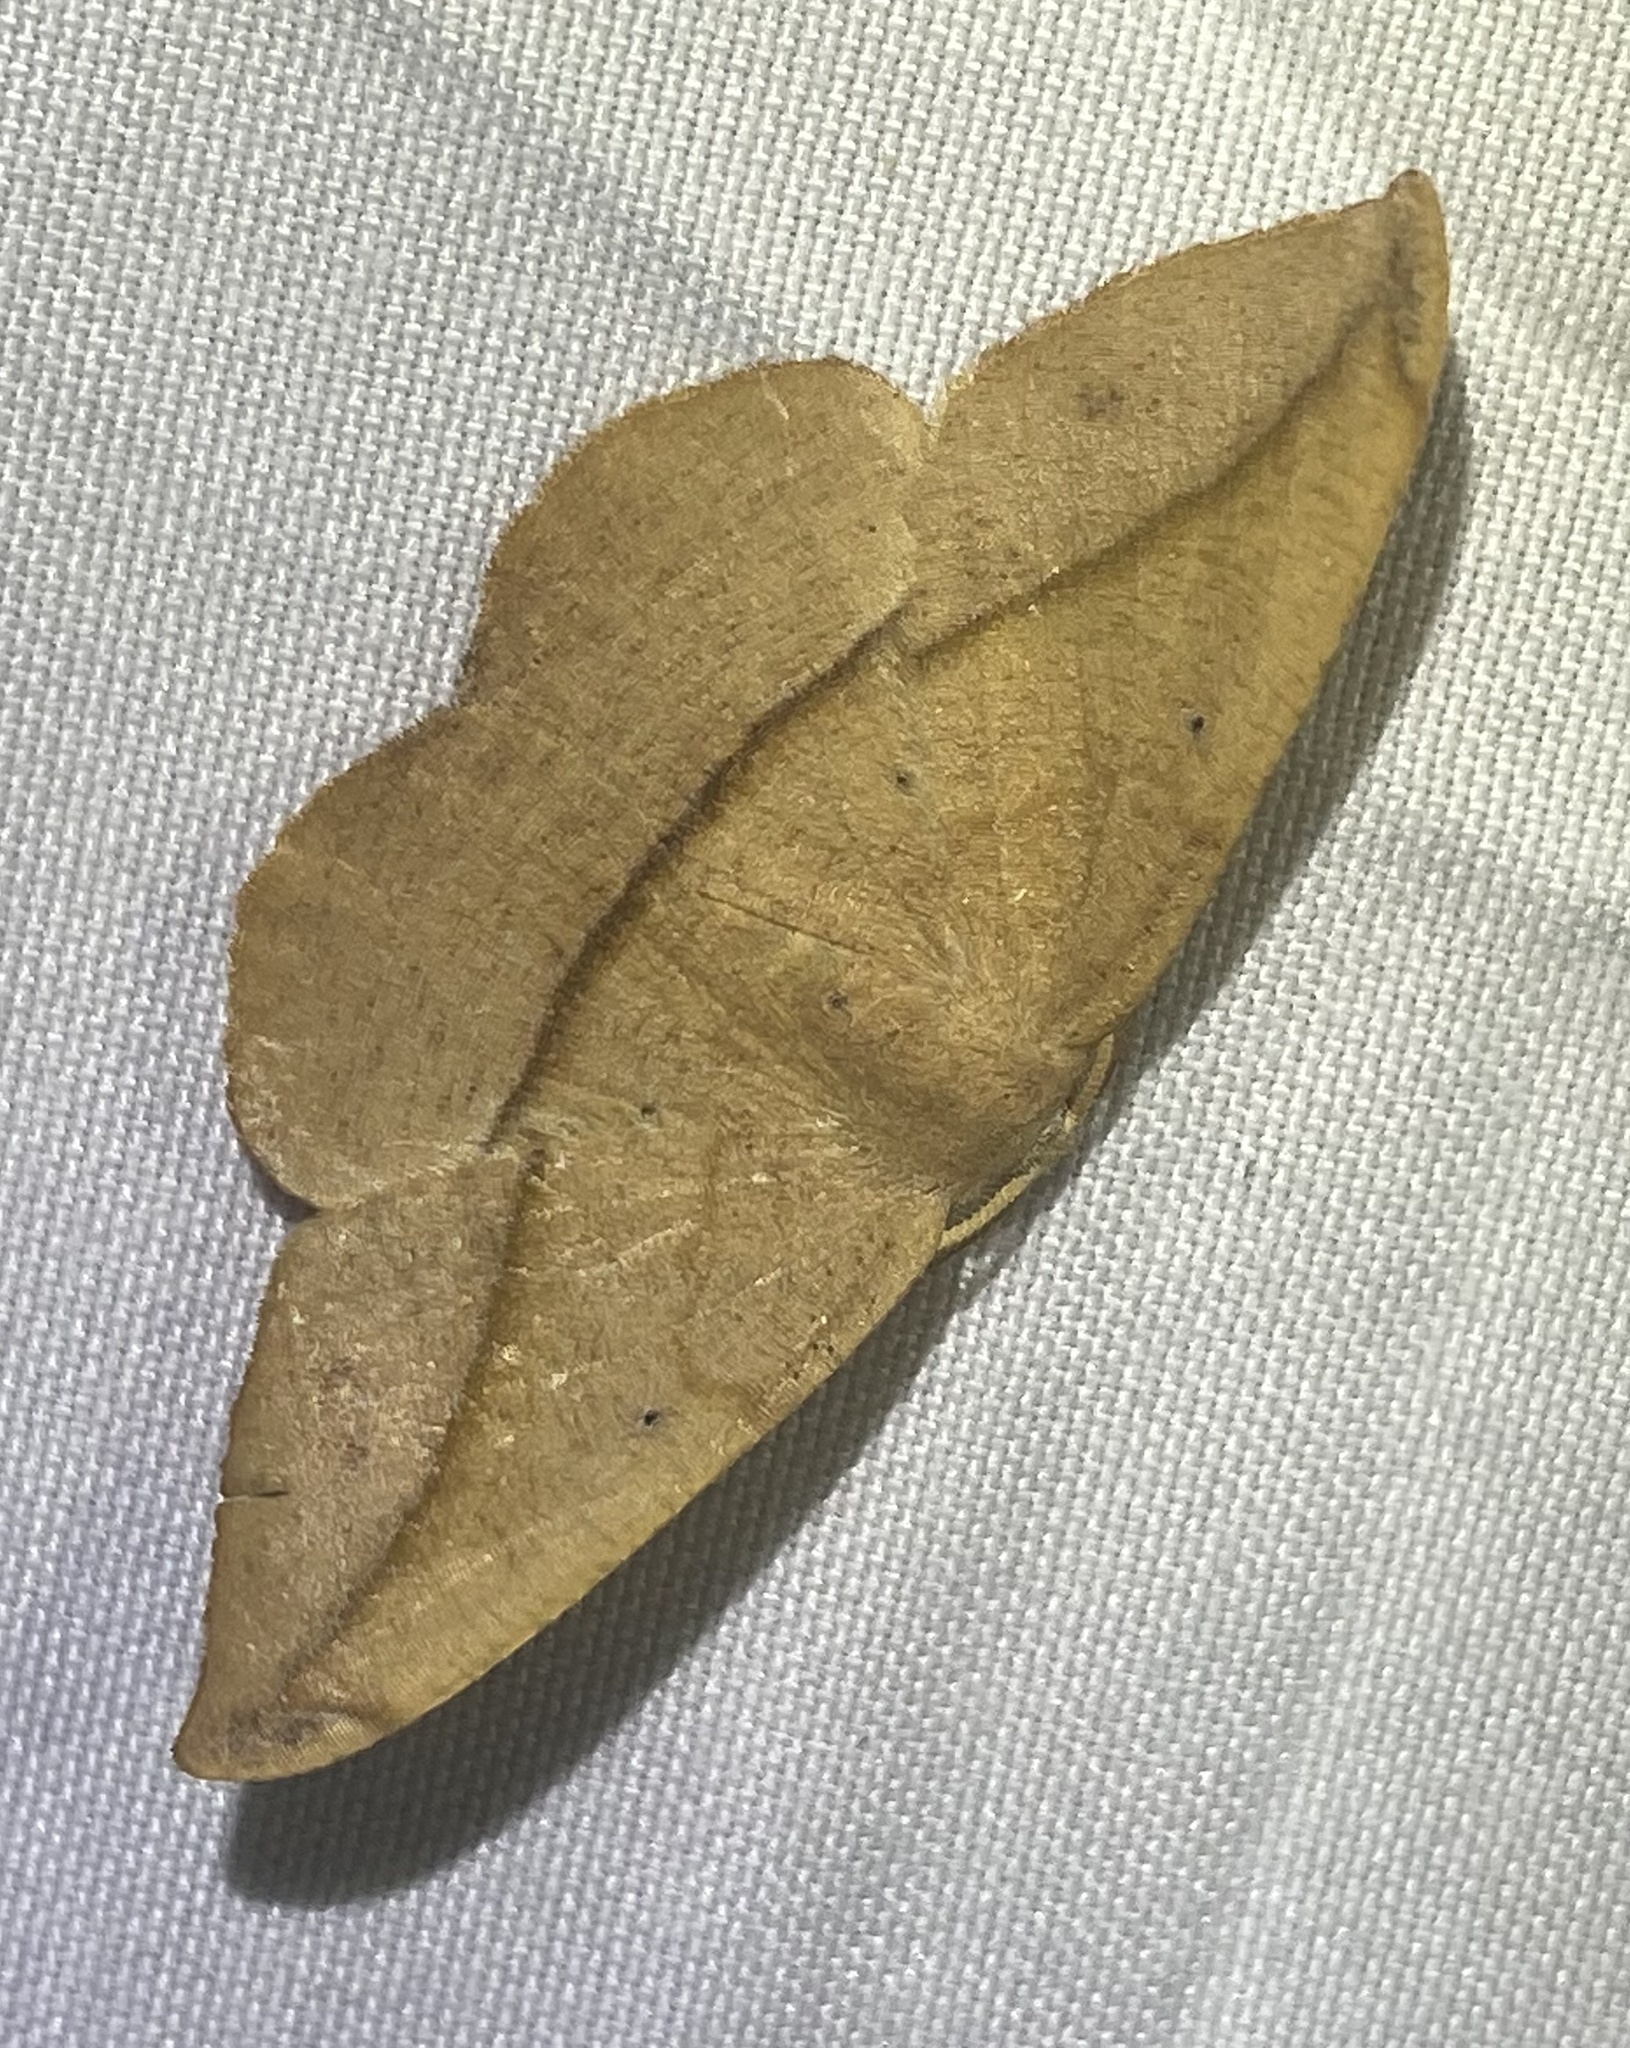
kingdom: Animalia
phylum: Arthropoda
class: Insecta
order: Lepidoptera
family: Geometridae
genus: Patalene
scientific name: Patalene olyzonaria
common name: Juniper geometer moth
